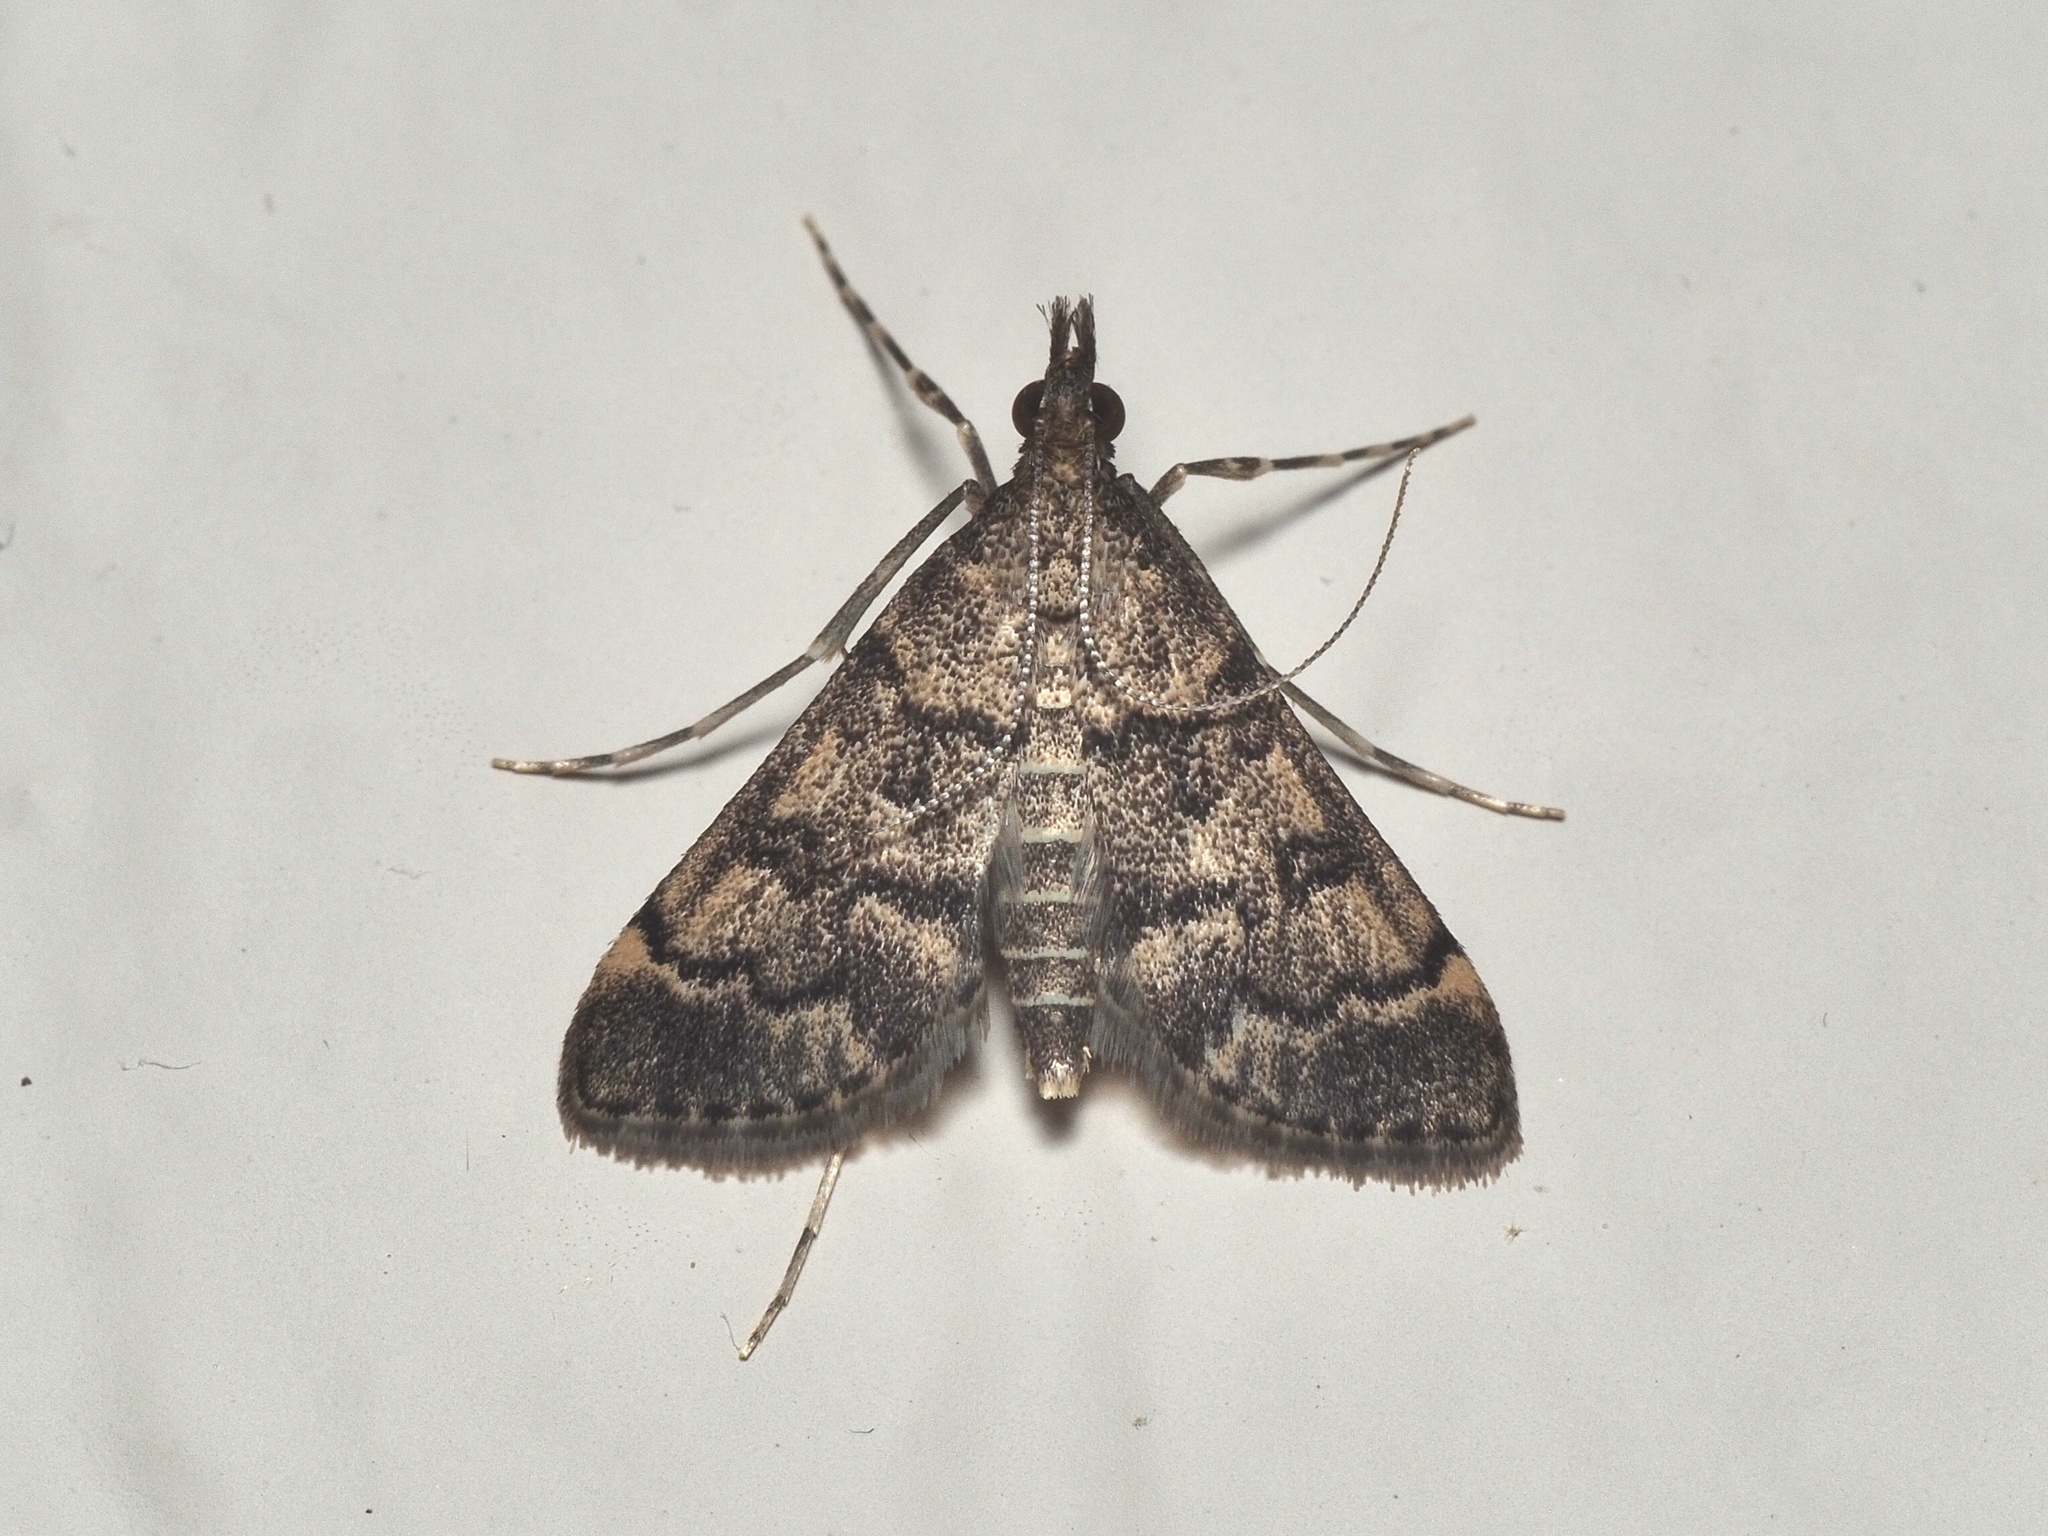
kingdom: Animalia
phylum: Arthropoda
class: Insecta
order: Lepidoptera
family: Crambidae
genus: Stenia
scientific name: Stenia Dolicharthria bruguieralis
